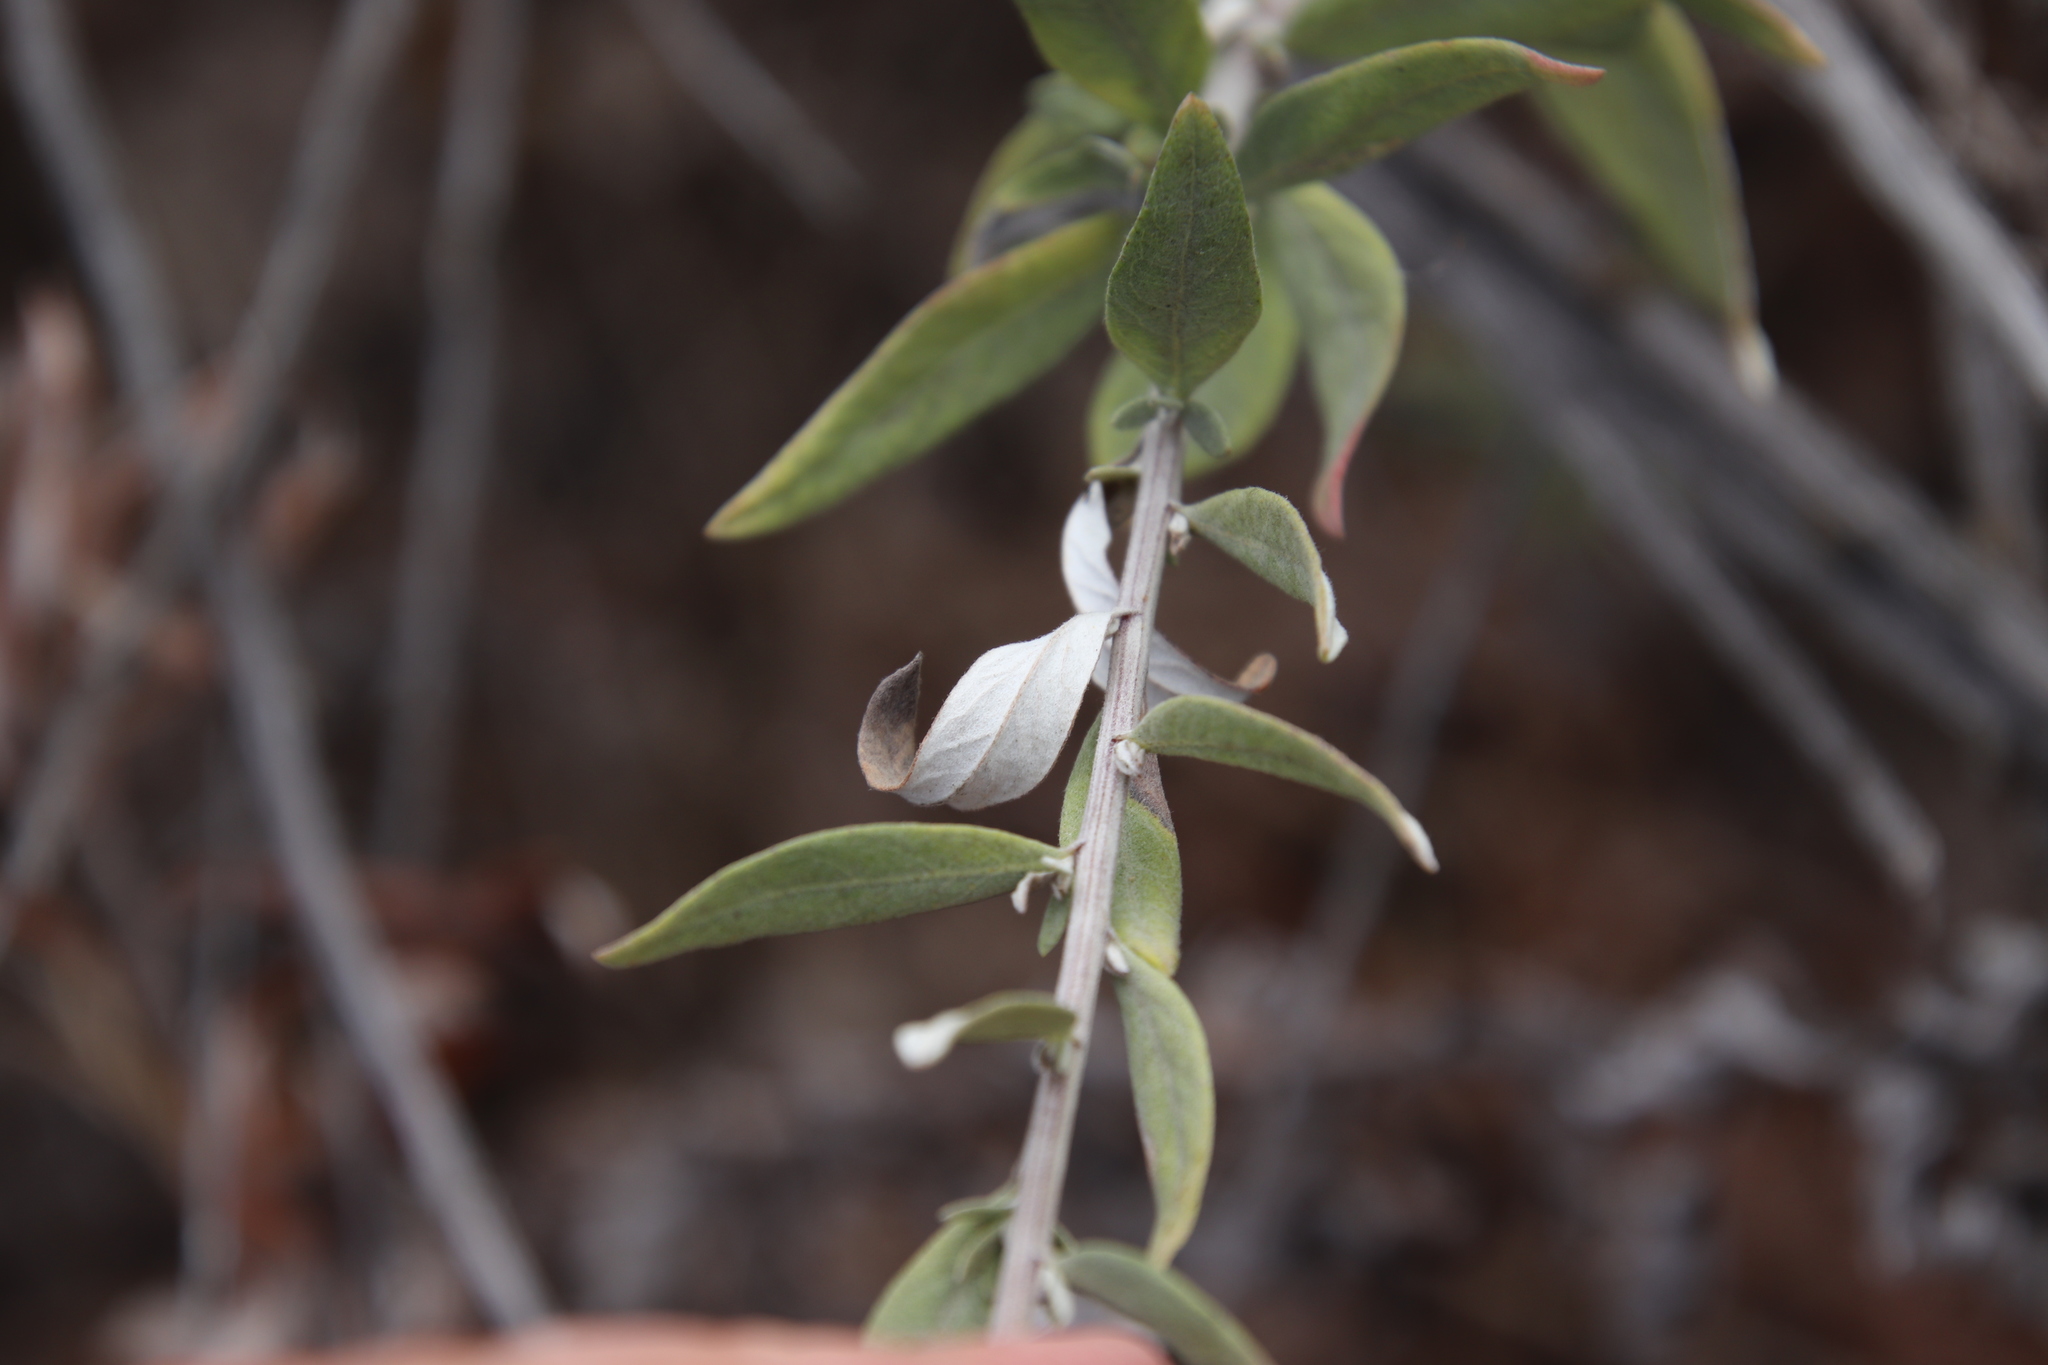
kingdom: Plantae
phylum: Tracheophyta
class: Magnoliopsida
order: Asterales
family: Asteraceae
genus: Artemisia
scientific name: Artemisia douglasiana
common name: Northwest mugwort
